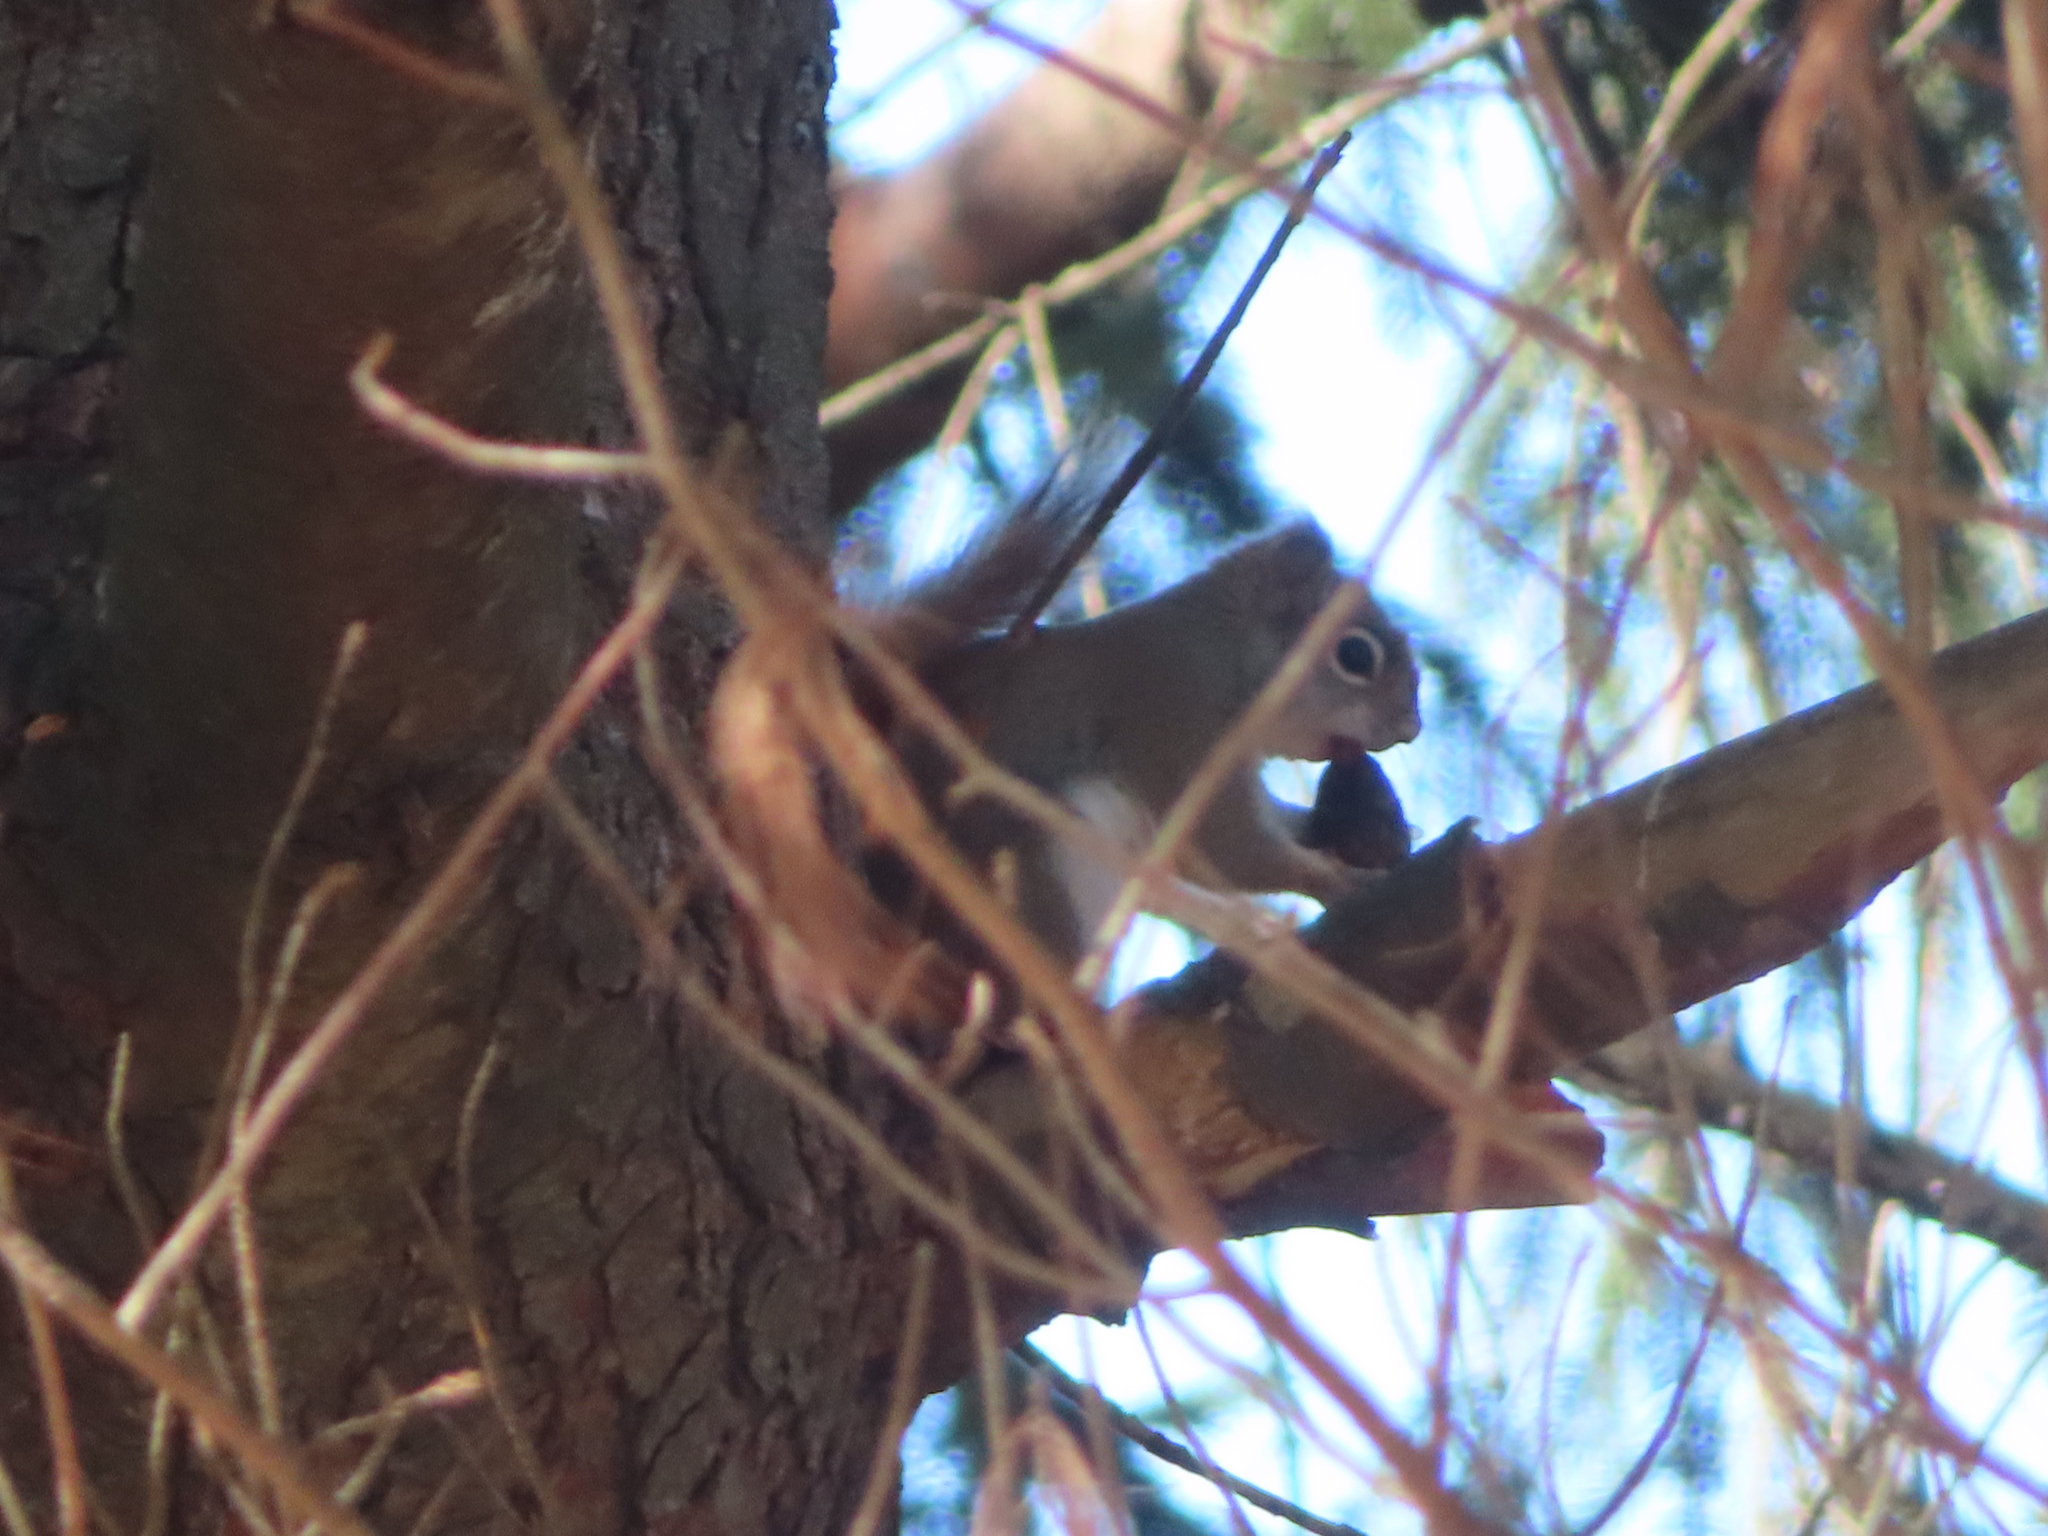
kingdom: Animalia
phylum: Chordata
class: Mammalia
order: Rodentia
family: Sciuridae
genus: Tamiasciurus
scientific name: Tamiasciurus hudsonicus
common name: Red squirrel
